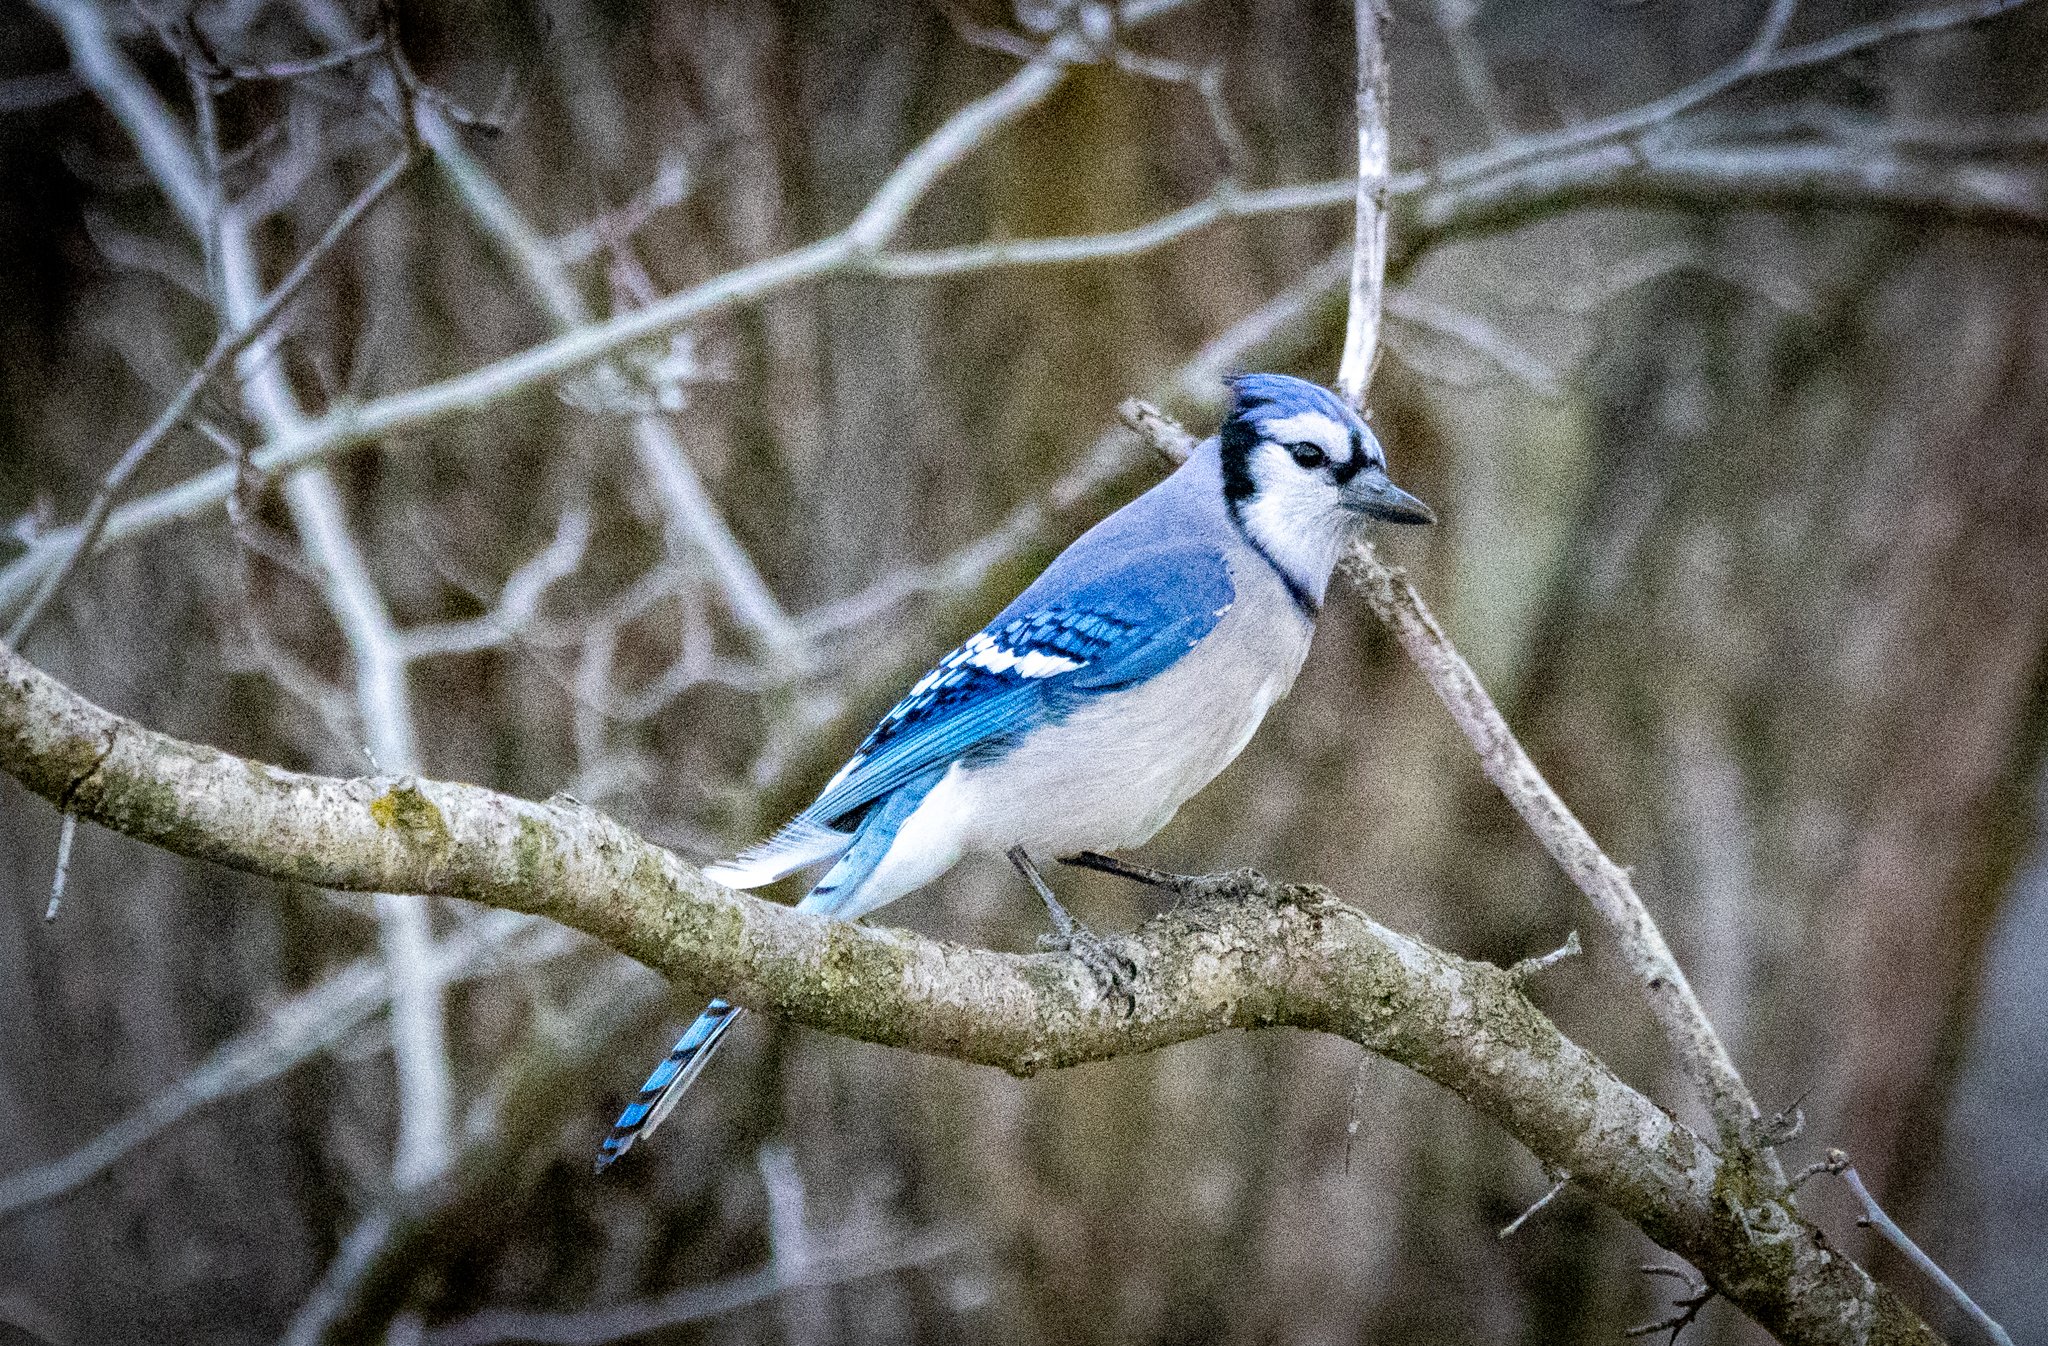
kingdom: Animalia
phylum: Chordata
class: Aves
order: Passeriformes
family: Corvidae
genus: Cyanocitta
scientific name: Cyanocitta cristata
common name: Blue jay
